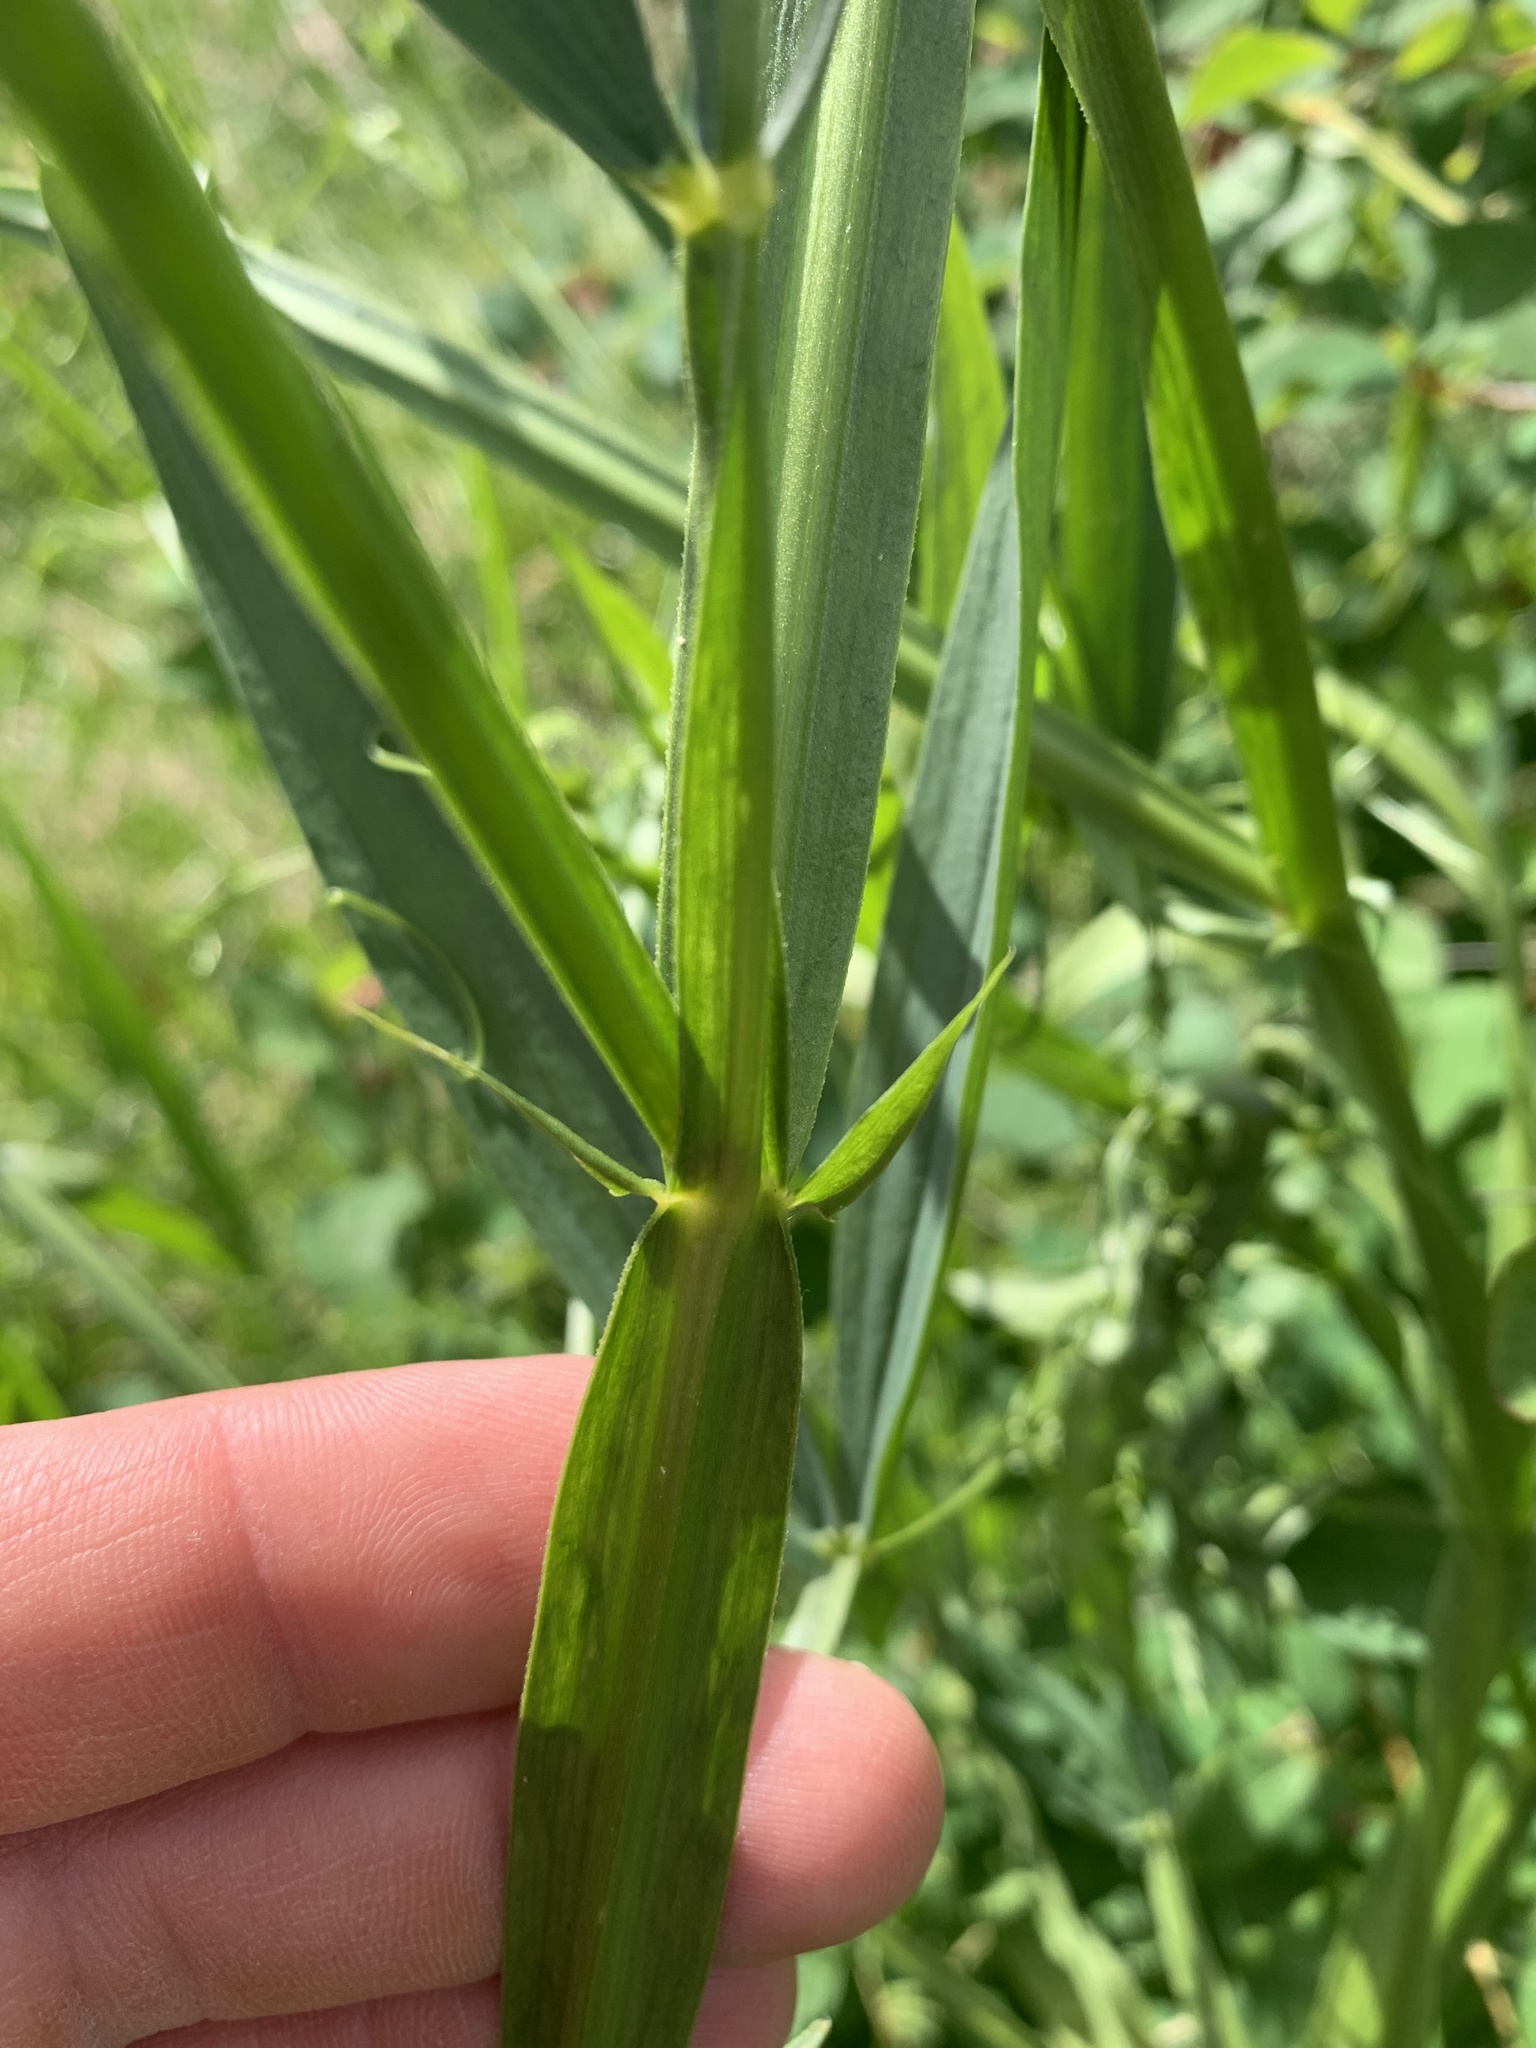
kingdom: Plantae
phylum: Tracheophyta
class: Magnoliopsida
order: Fabales
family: Fabaceae
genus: Lathyrus
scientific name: Lathyrus sylvestris
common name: Flat pea
